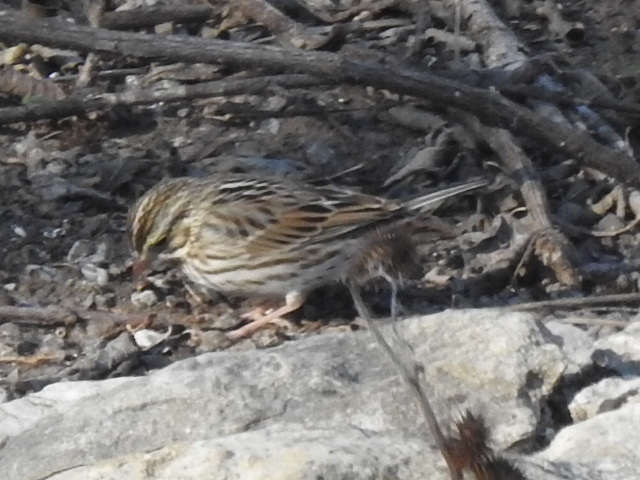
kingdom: Animalia
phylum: Chordata
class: Aves
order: Passeriformes
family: Passerellidae
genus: Passerculus
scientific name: Passerculus sandwichensis
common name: Savannah sparrow
